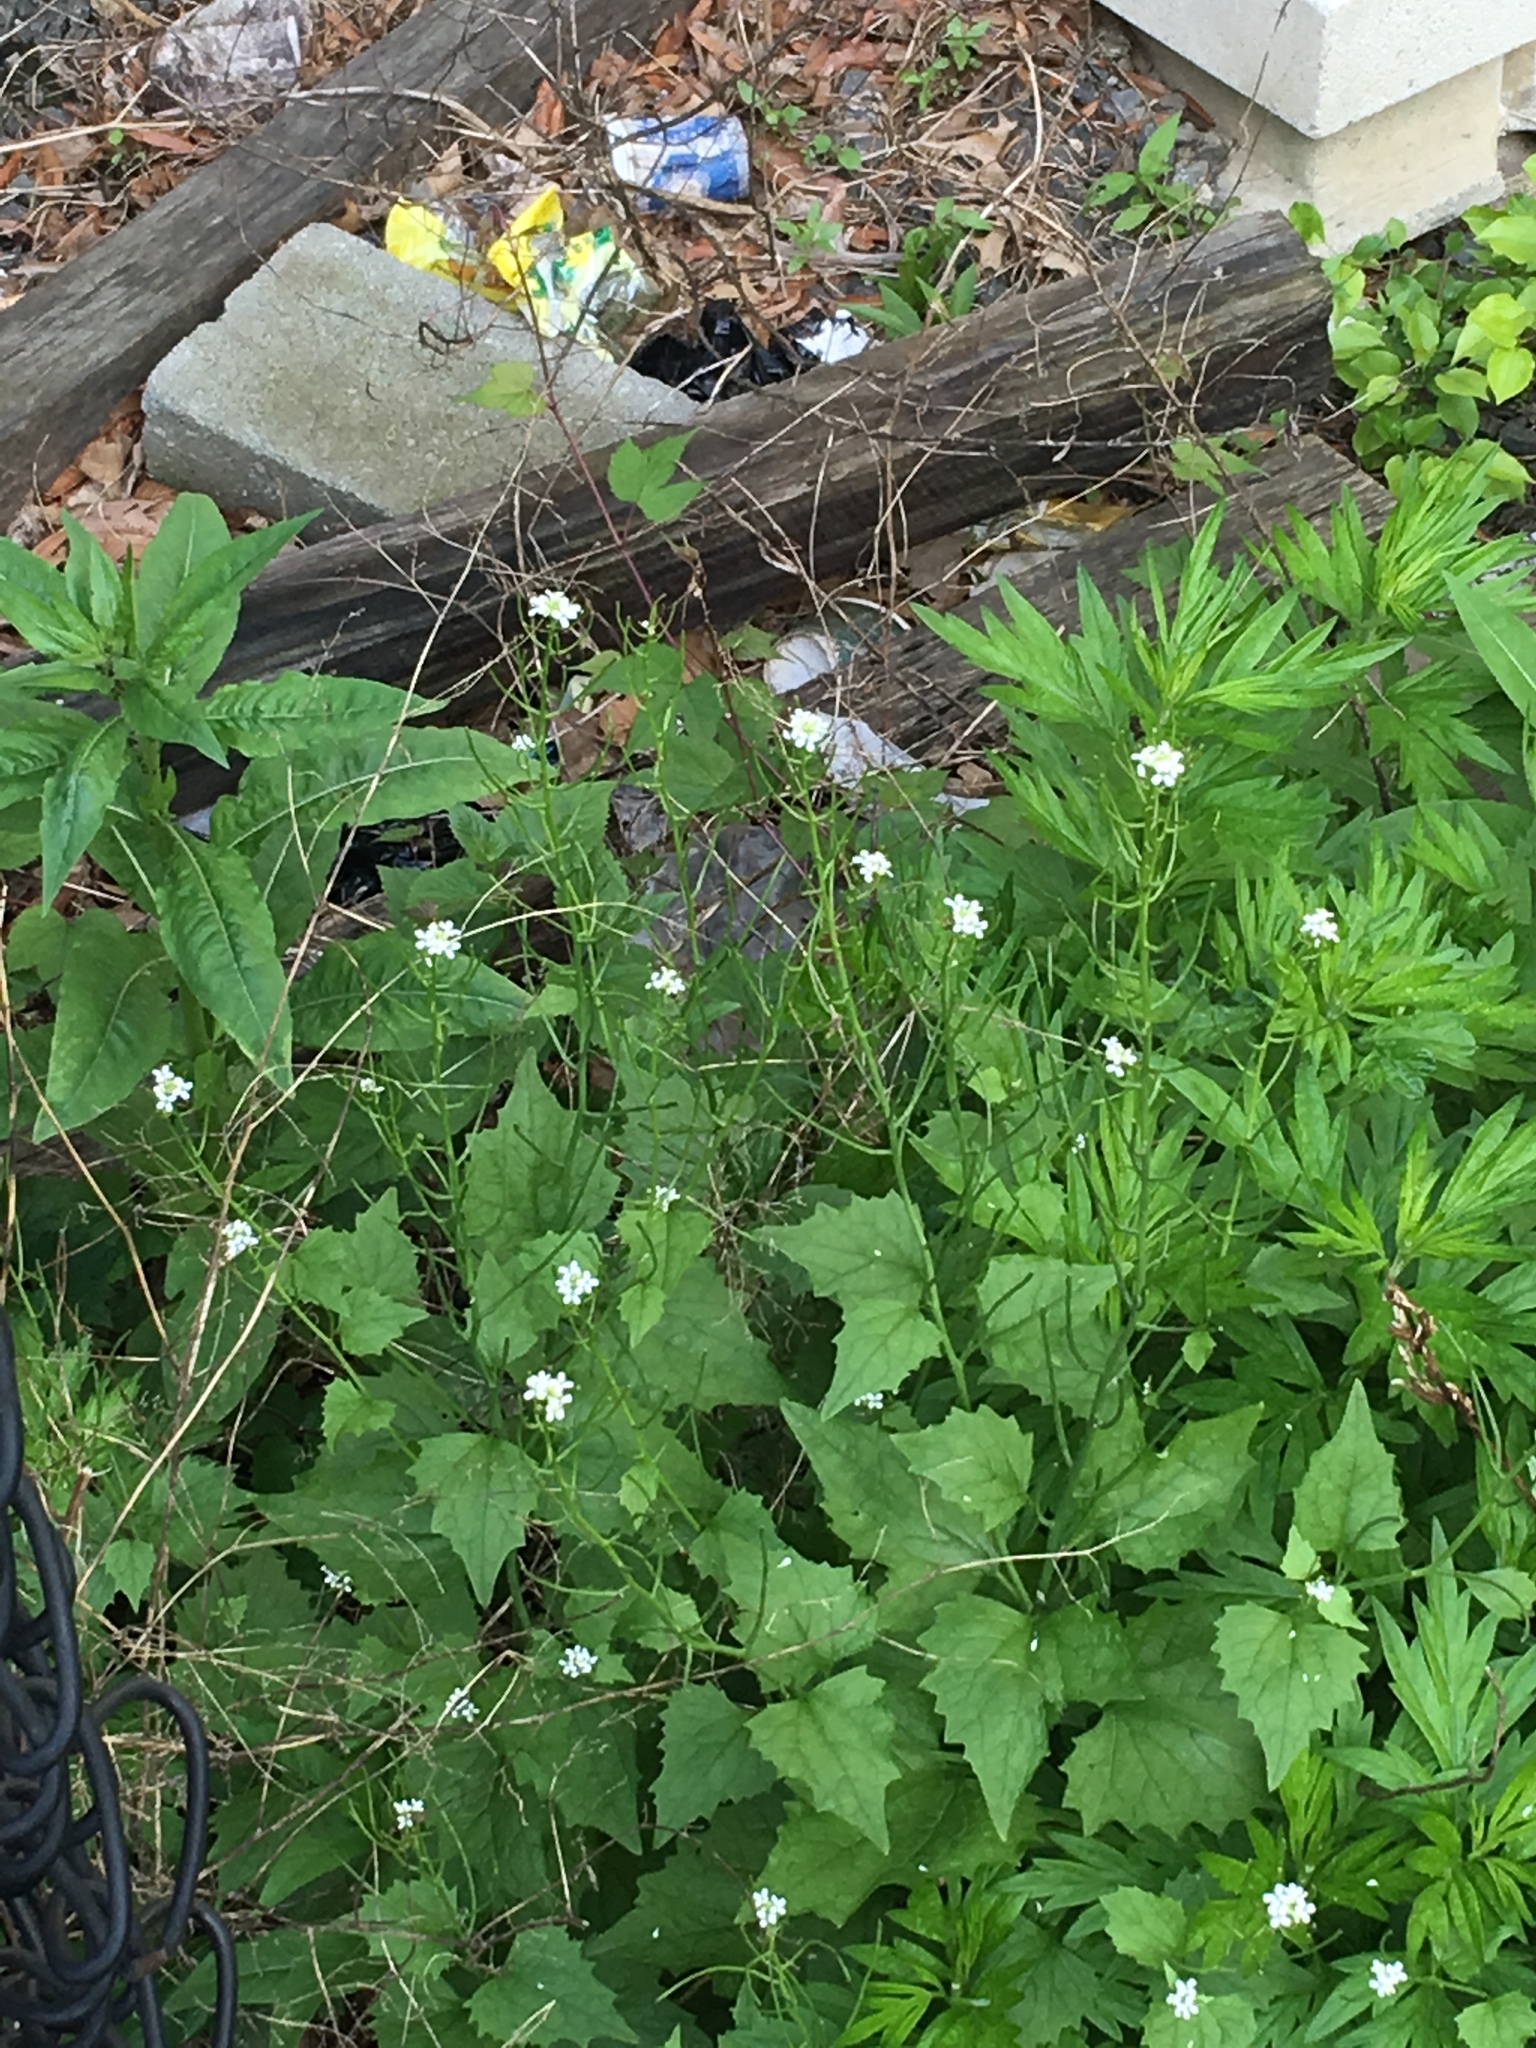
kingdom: Plantae
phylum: Tracheophyta
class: Magnoliopsida
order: Brassicales
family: Brassicaceae
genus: Alliaria
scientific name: Alliaria petiolata
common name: Garlic mustard
